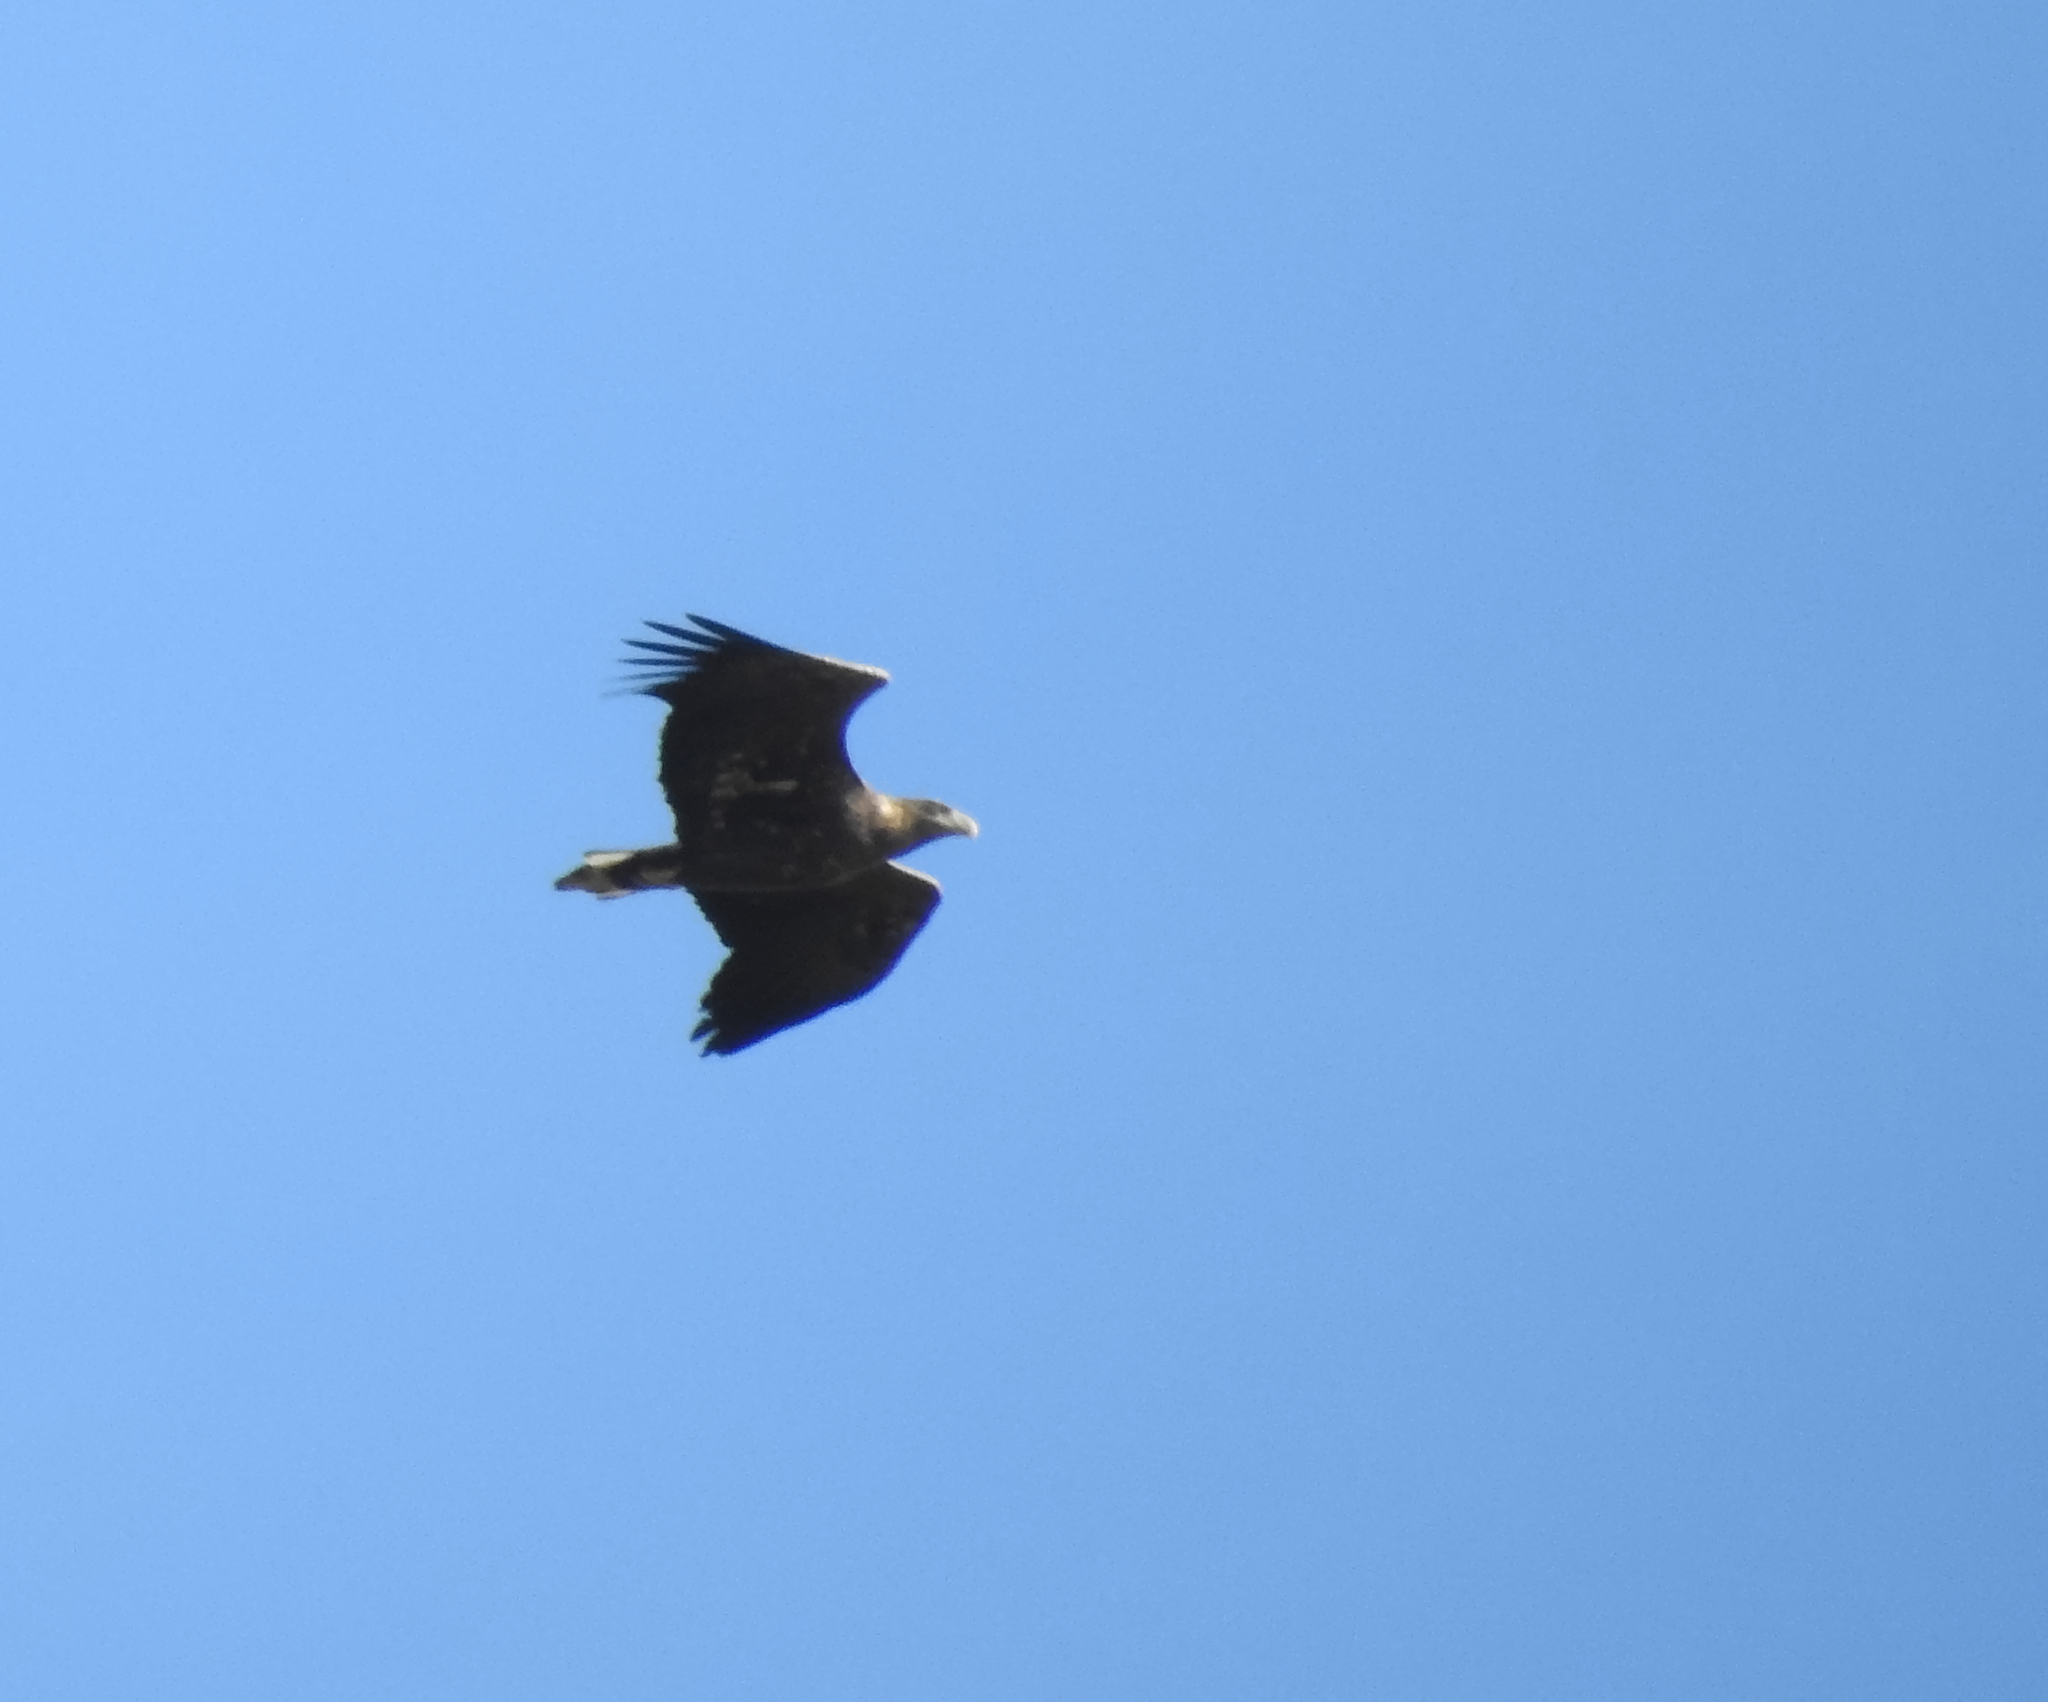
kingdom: Animalia
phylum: Chordata
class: Aves
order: Accipitriformes
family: Accipitridae
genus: Haliaeetus
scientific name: Haliaeetus albicilla
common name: White-tailed eagle
